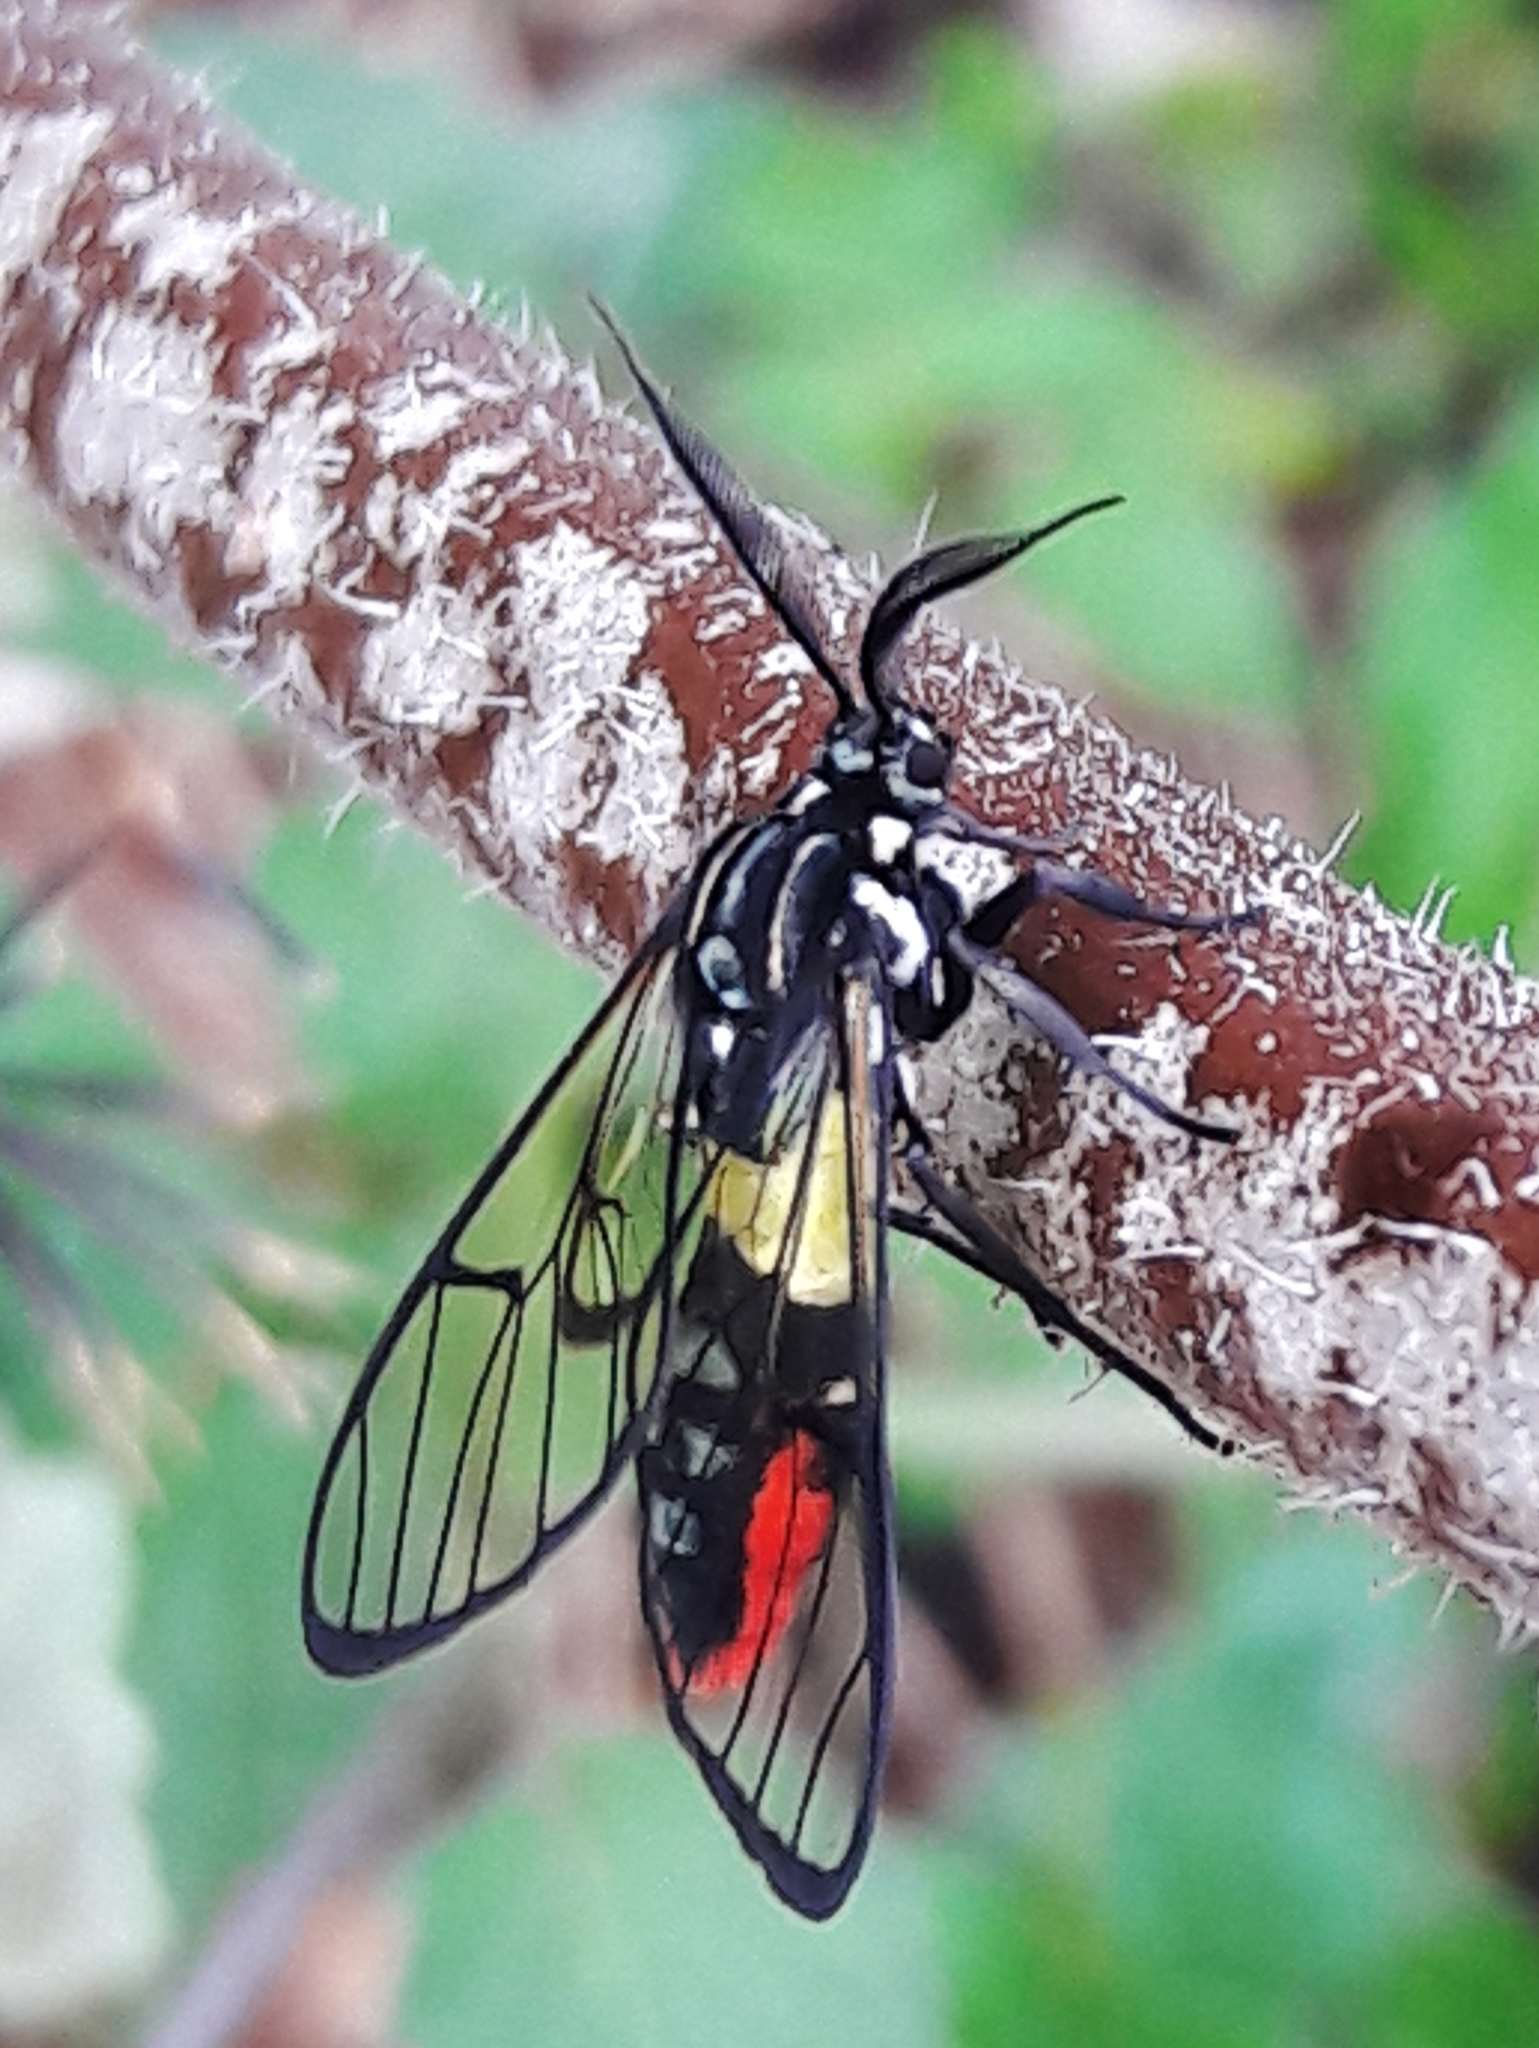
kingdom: Animalia
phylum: Arthropoda
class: Insecta
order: Lepidoptera
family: Erebidae
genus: Argyroeides
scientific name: Argyroeides ophion
